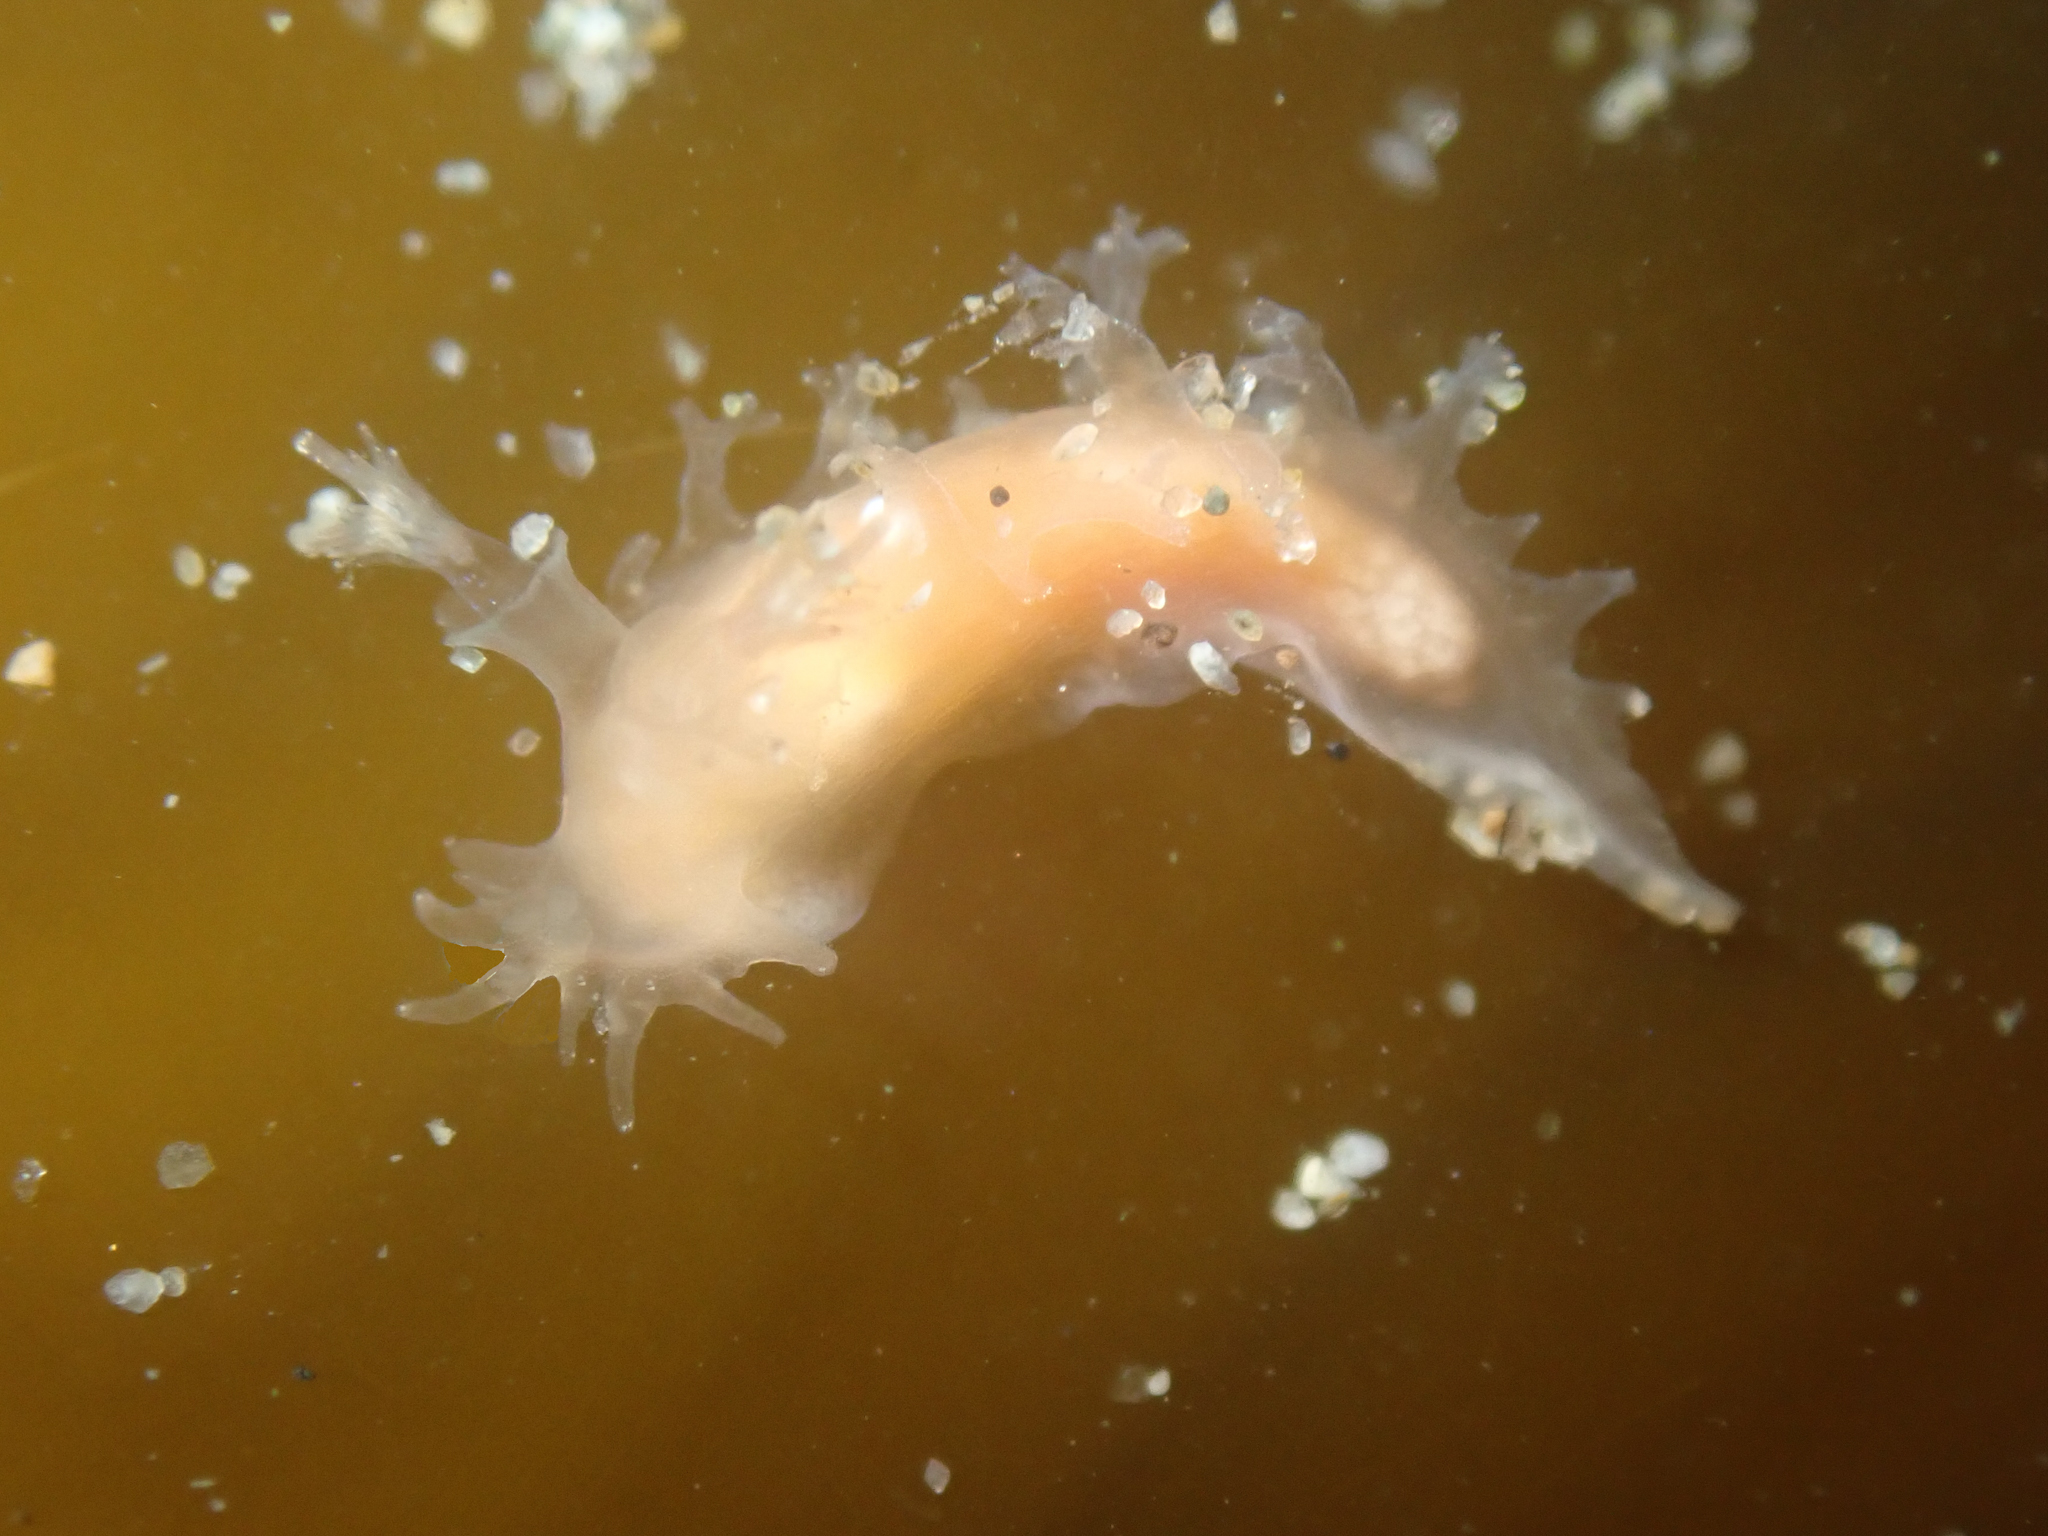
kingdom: Animalia
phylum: Mollusca
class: Gastropoda
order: Nudibranchia
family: Tritoniidae
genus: Tritonicula
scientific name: Tritonicula myrakeenae
